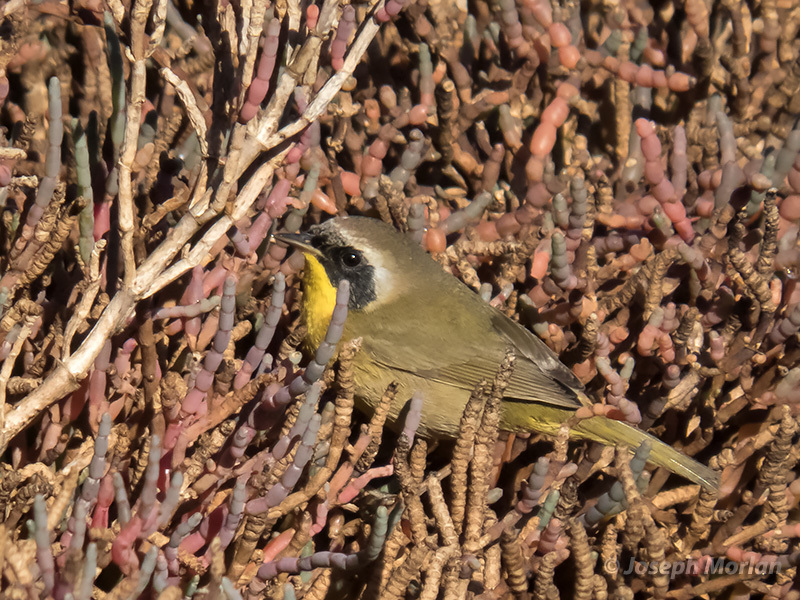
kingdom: Animalia
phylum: Chordata
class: Aves
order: Passeriformes
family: Parulidae
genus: Geothlypis
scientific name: Geothlypis trichas
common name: Common yellowthroat
